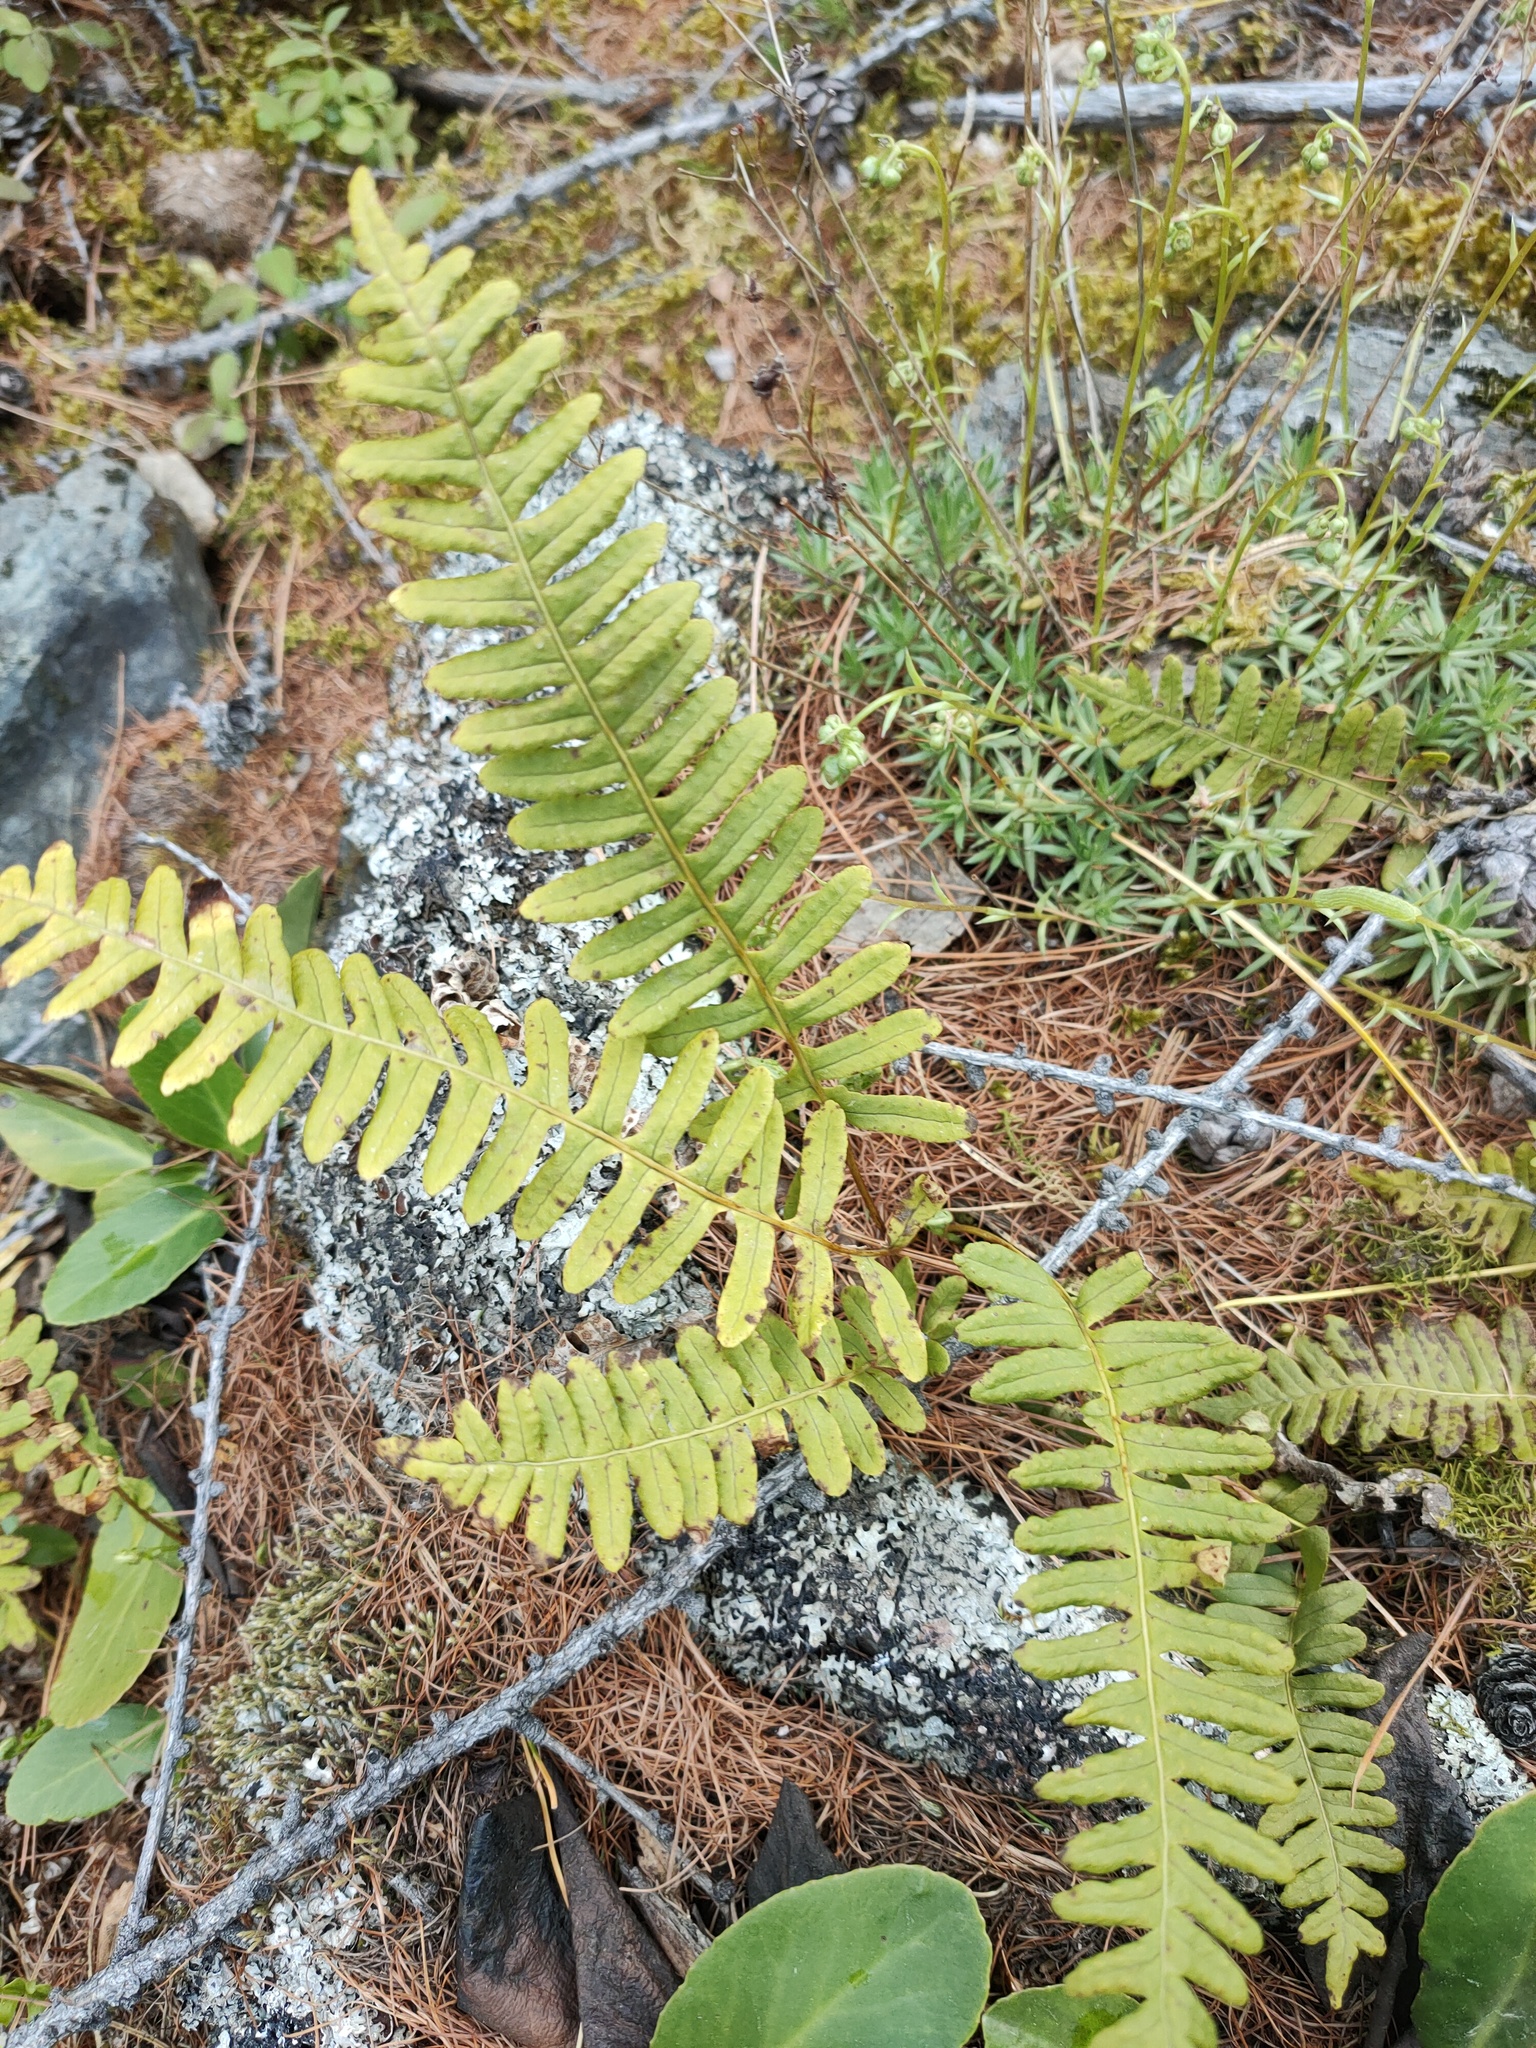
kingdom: Plantae
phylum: Tracheophyta
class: Polypodiopsida
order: Polypodiales
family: Polypodiaceae
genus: Polypodium
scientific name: Polypodium sibiricum
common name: Siberian polypody
